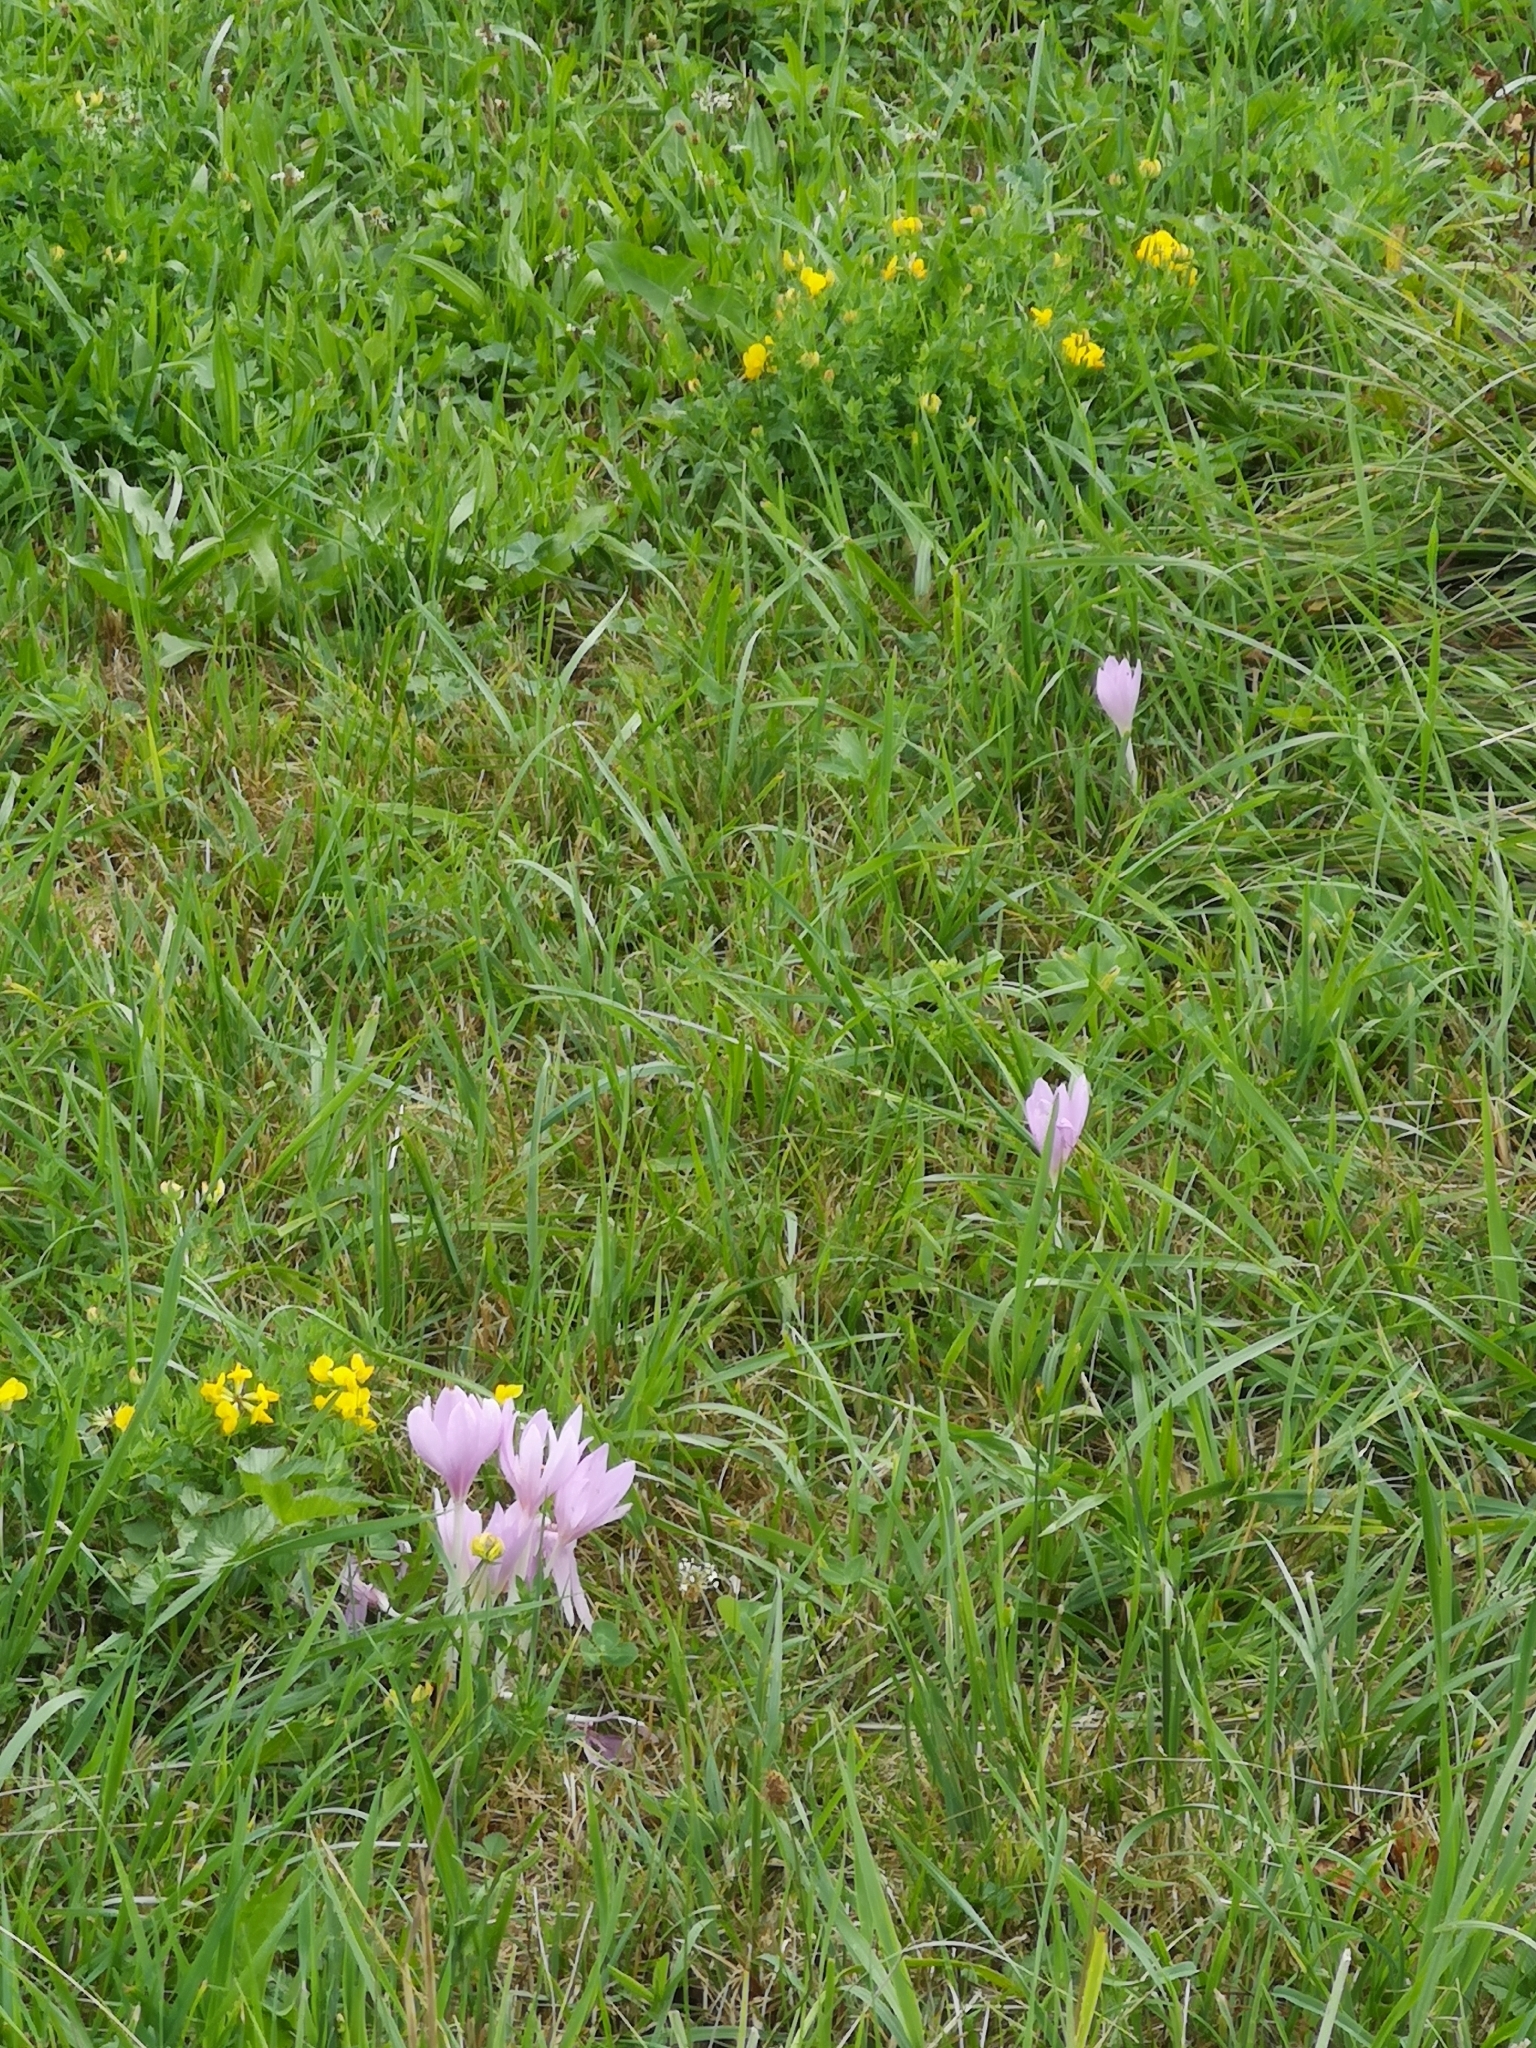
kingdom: Plantae
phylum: Tracheophyta
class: Liliopsida
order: Liliales
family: Colchicaceae
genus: Colchicum
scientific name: Colchicum autumnale
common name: Autumn crocus
